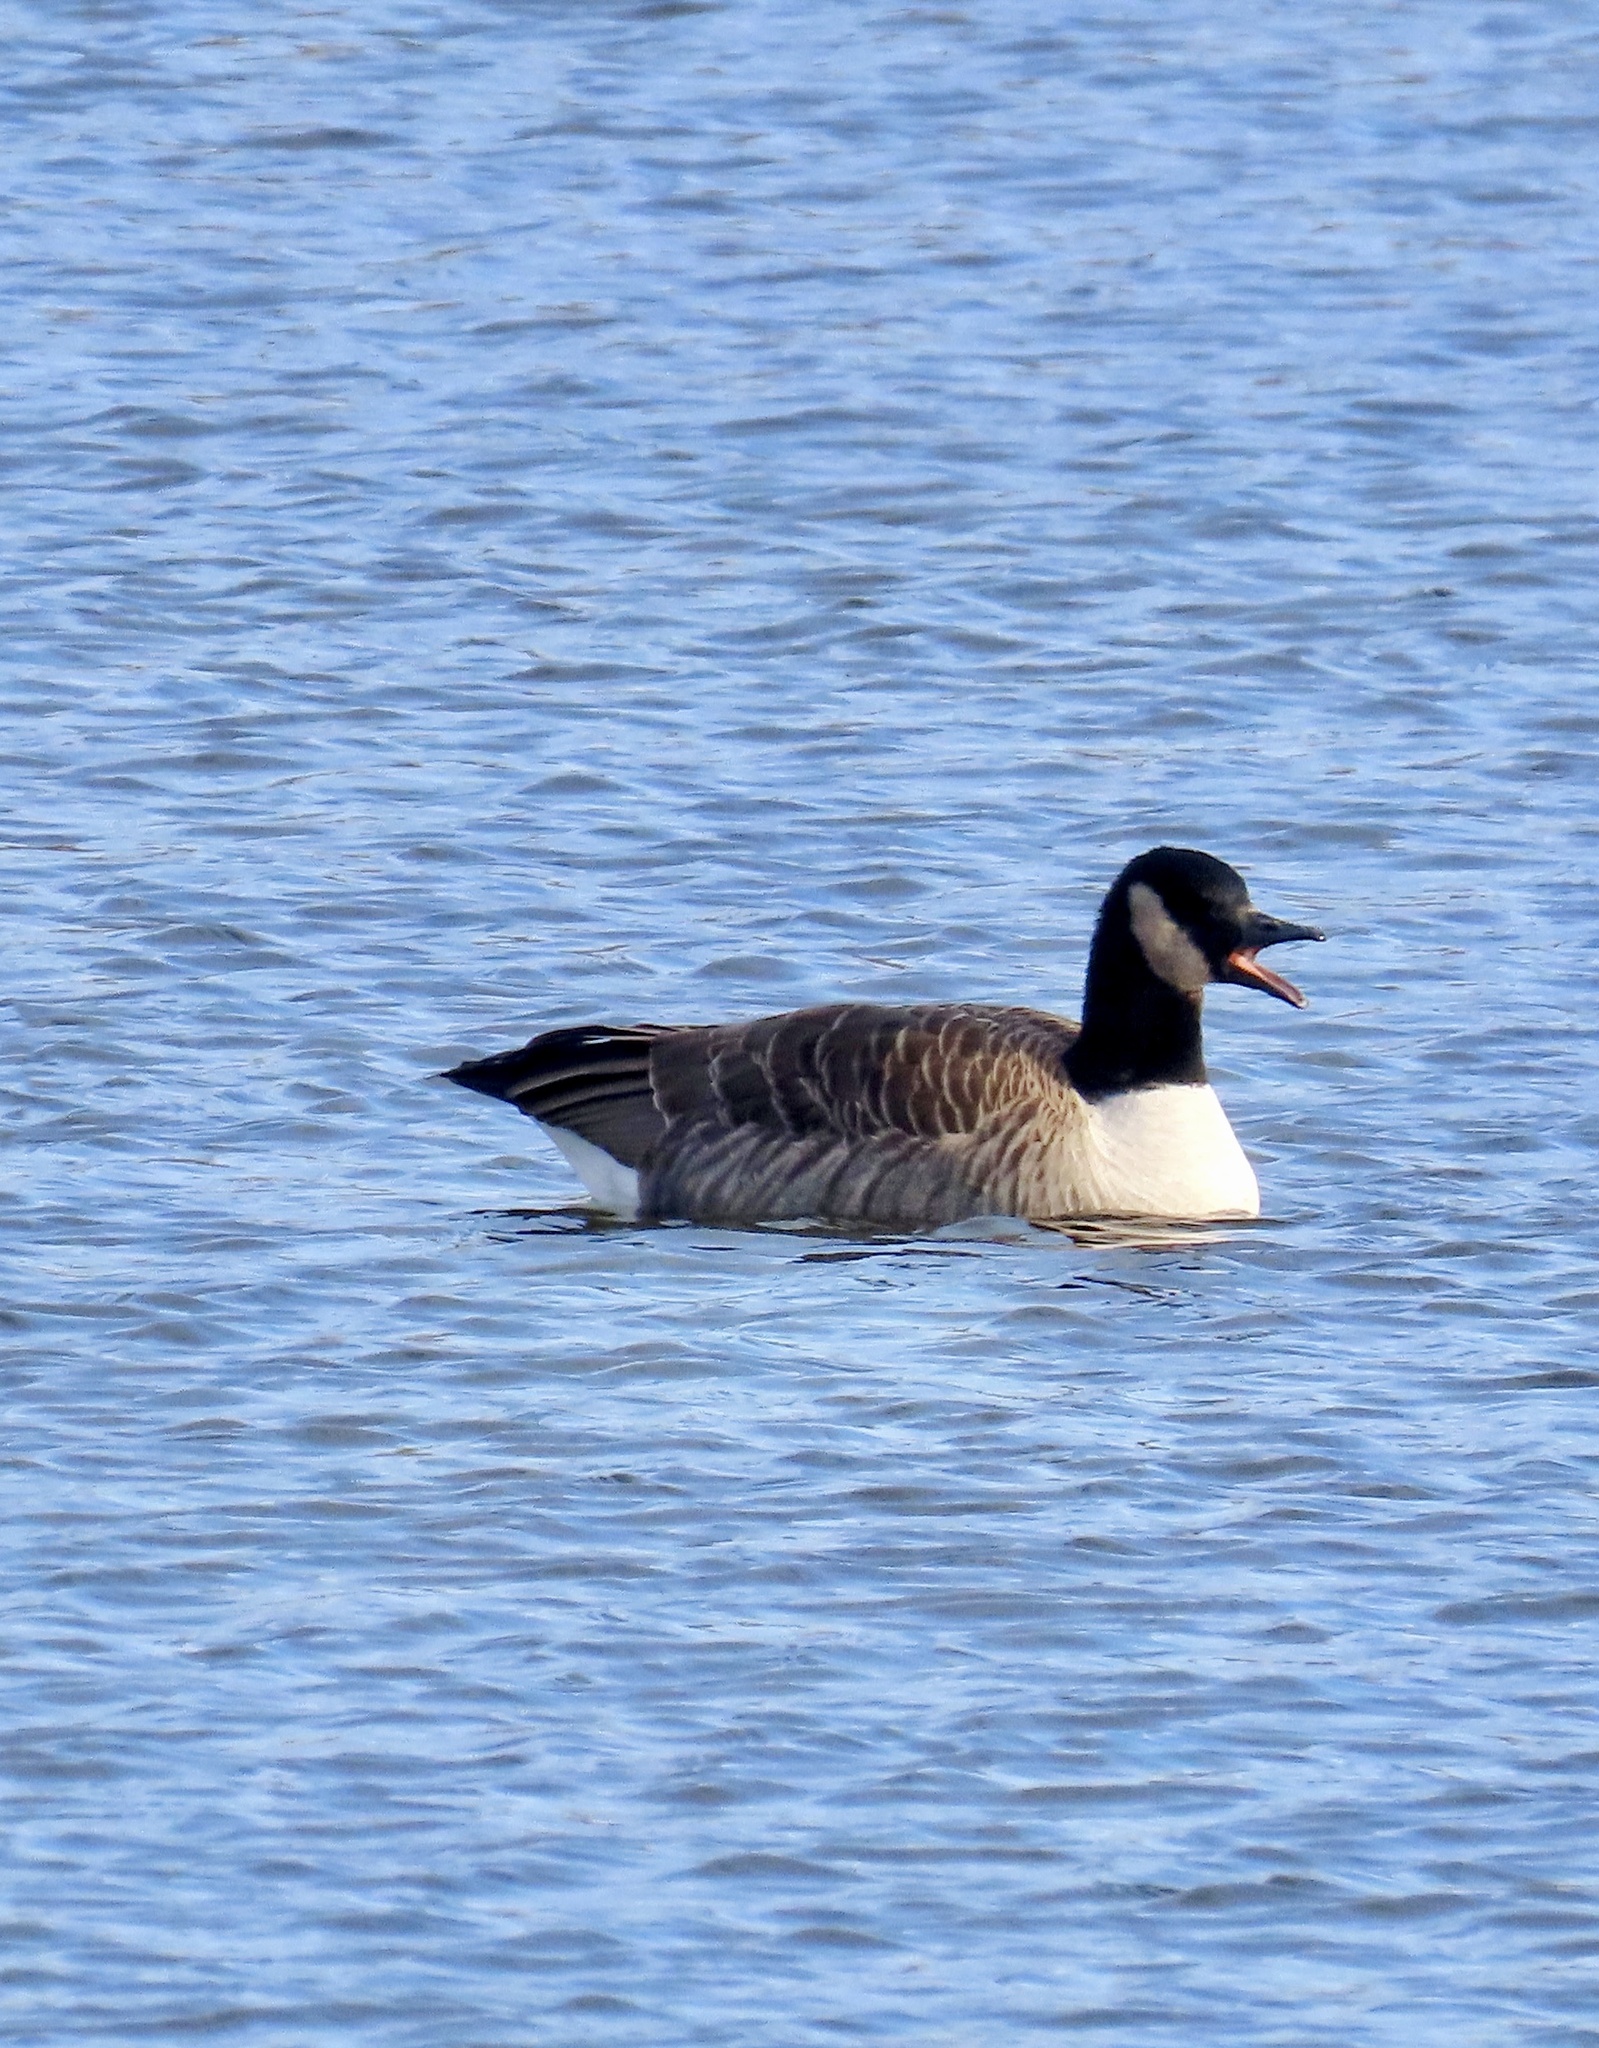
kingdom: Animalia
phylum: Chordata
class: Aves
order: Anseriformes
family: Anatidae
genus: Branta
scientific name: Branta canadensis
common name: Canada goose
